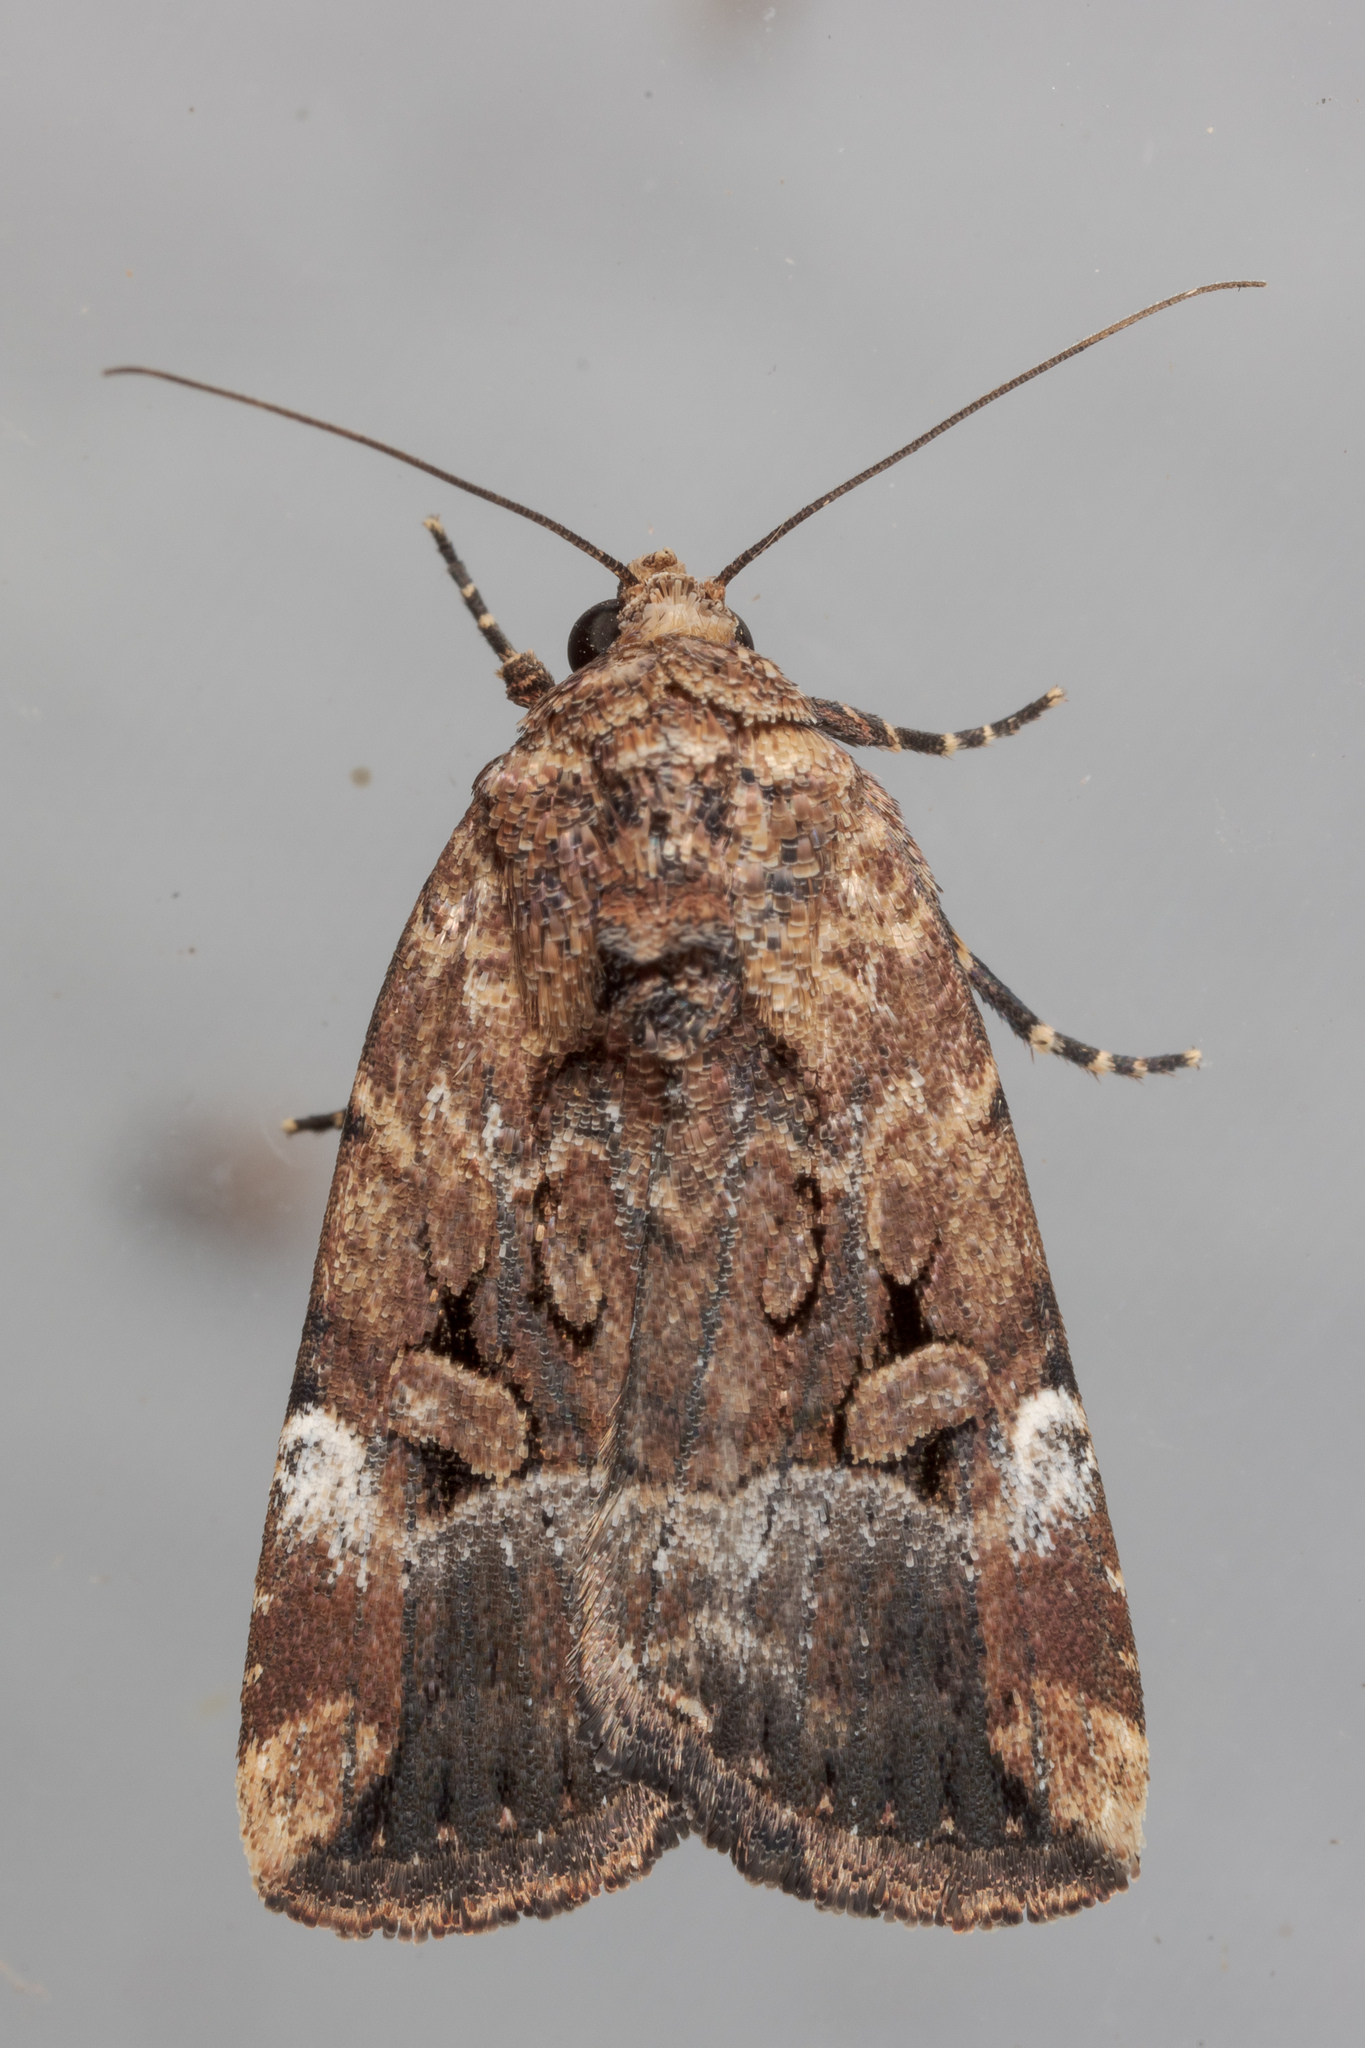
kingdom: Animalia
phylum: Arthropoda
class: Insecta
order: Lepidoptera
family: Noctuidae
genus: Elaphria
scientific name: Elaphria chalcedonia
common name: Chalcedony midget
